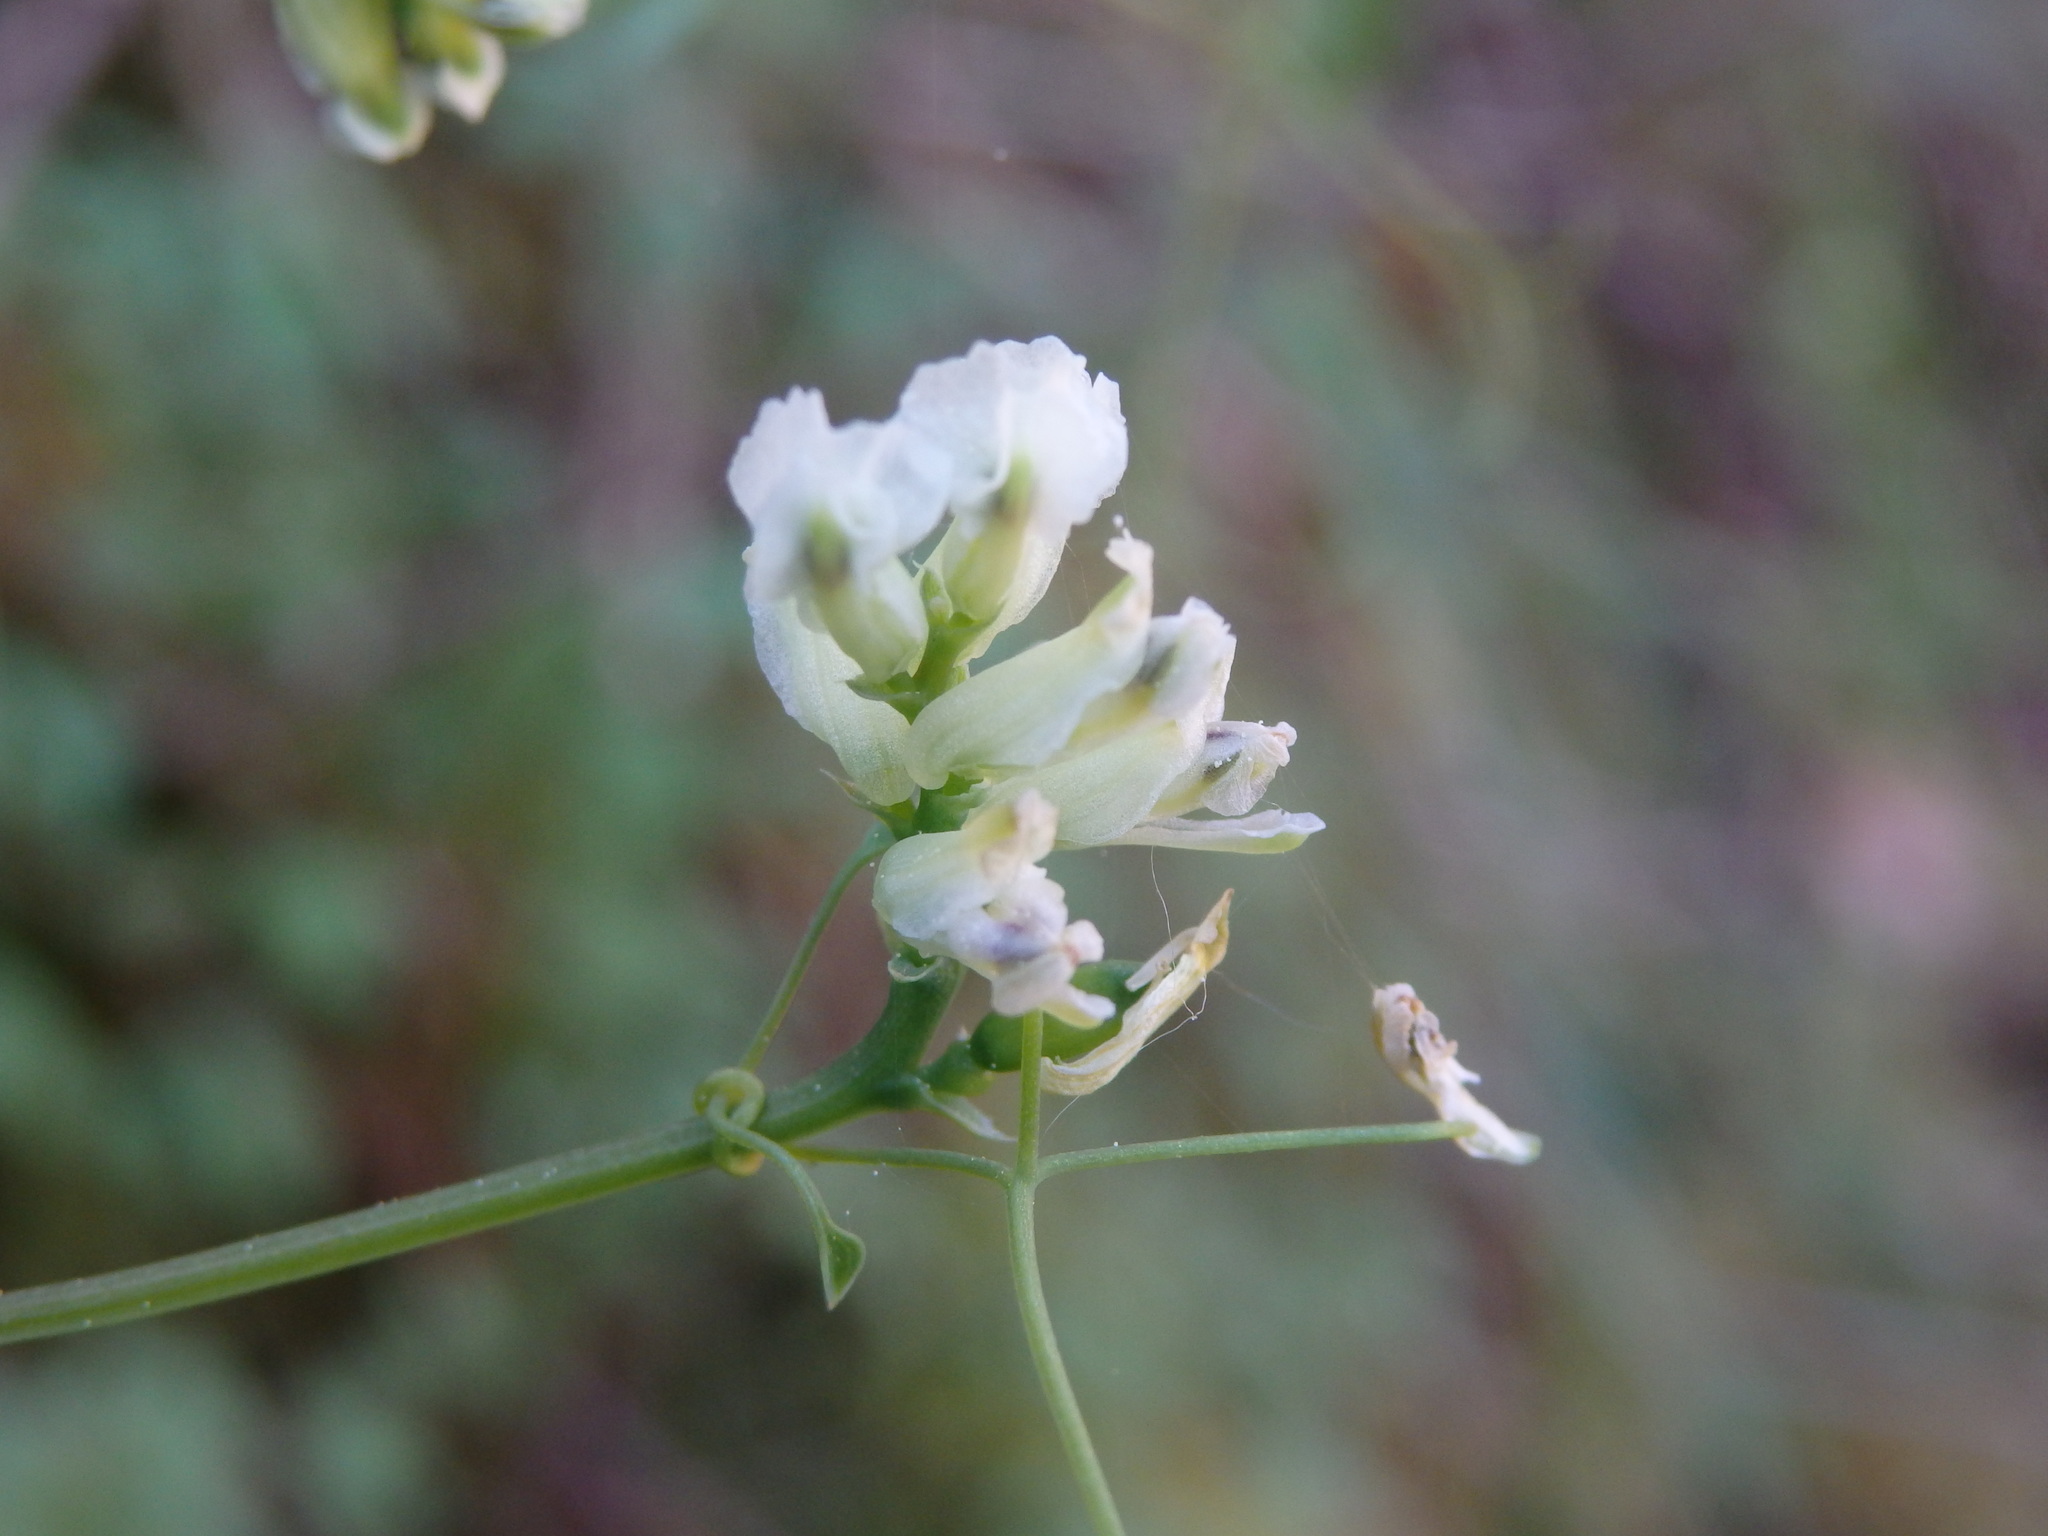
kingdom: Plantae
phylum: Tracheophyta
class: Magnoliopsida
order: Ranunculales
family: Papaveraceae
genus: Ceratocapnos
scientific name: Ceratocapnos claviculata
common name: Climbing corydalis
